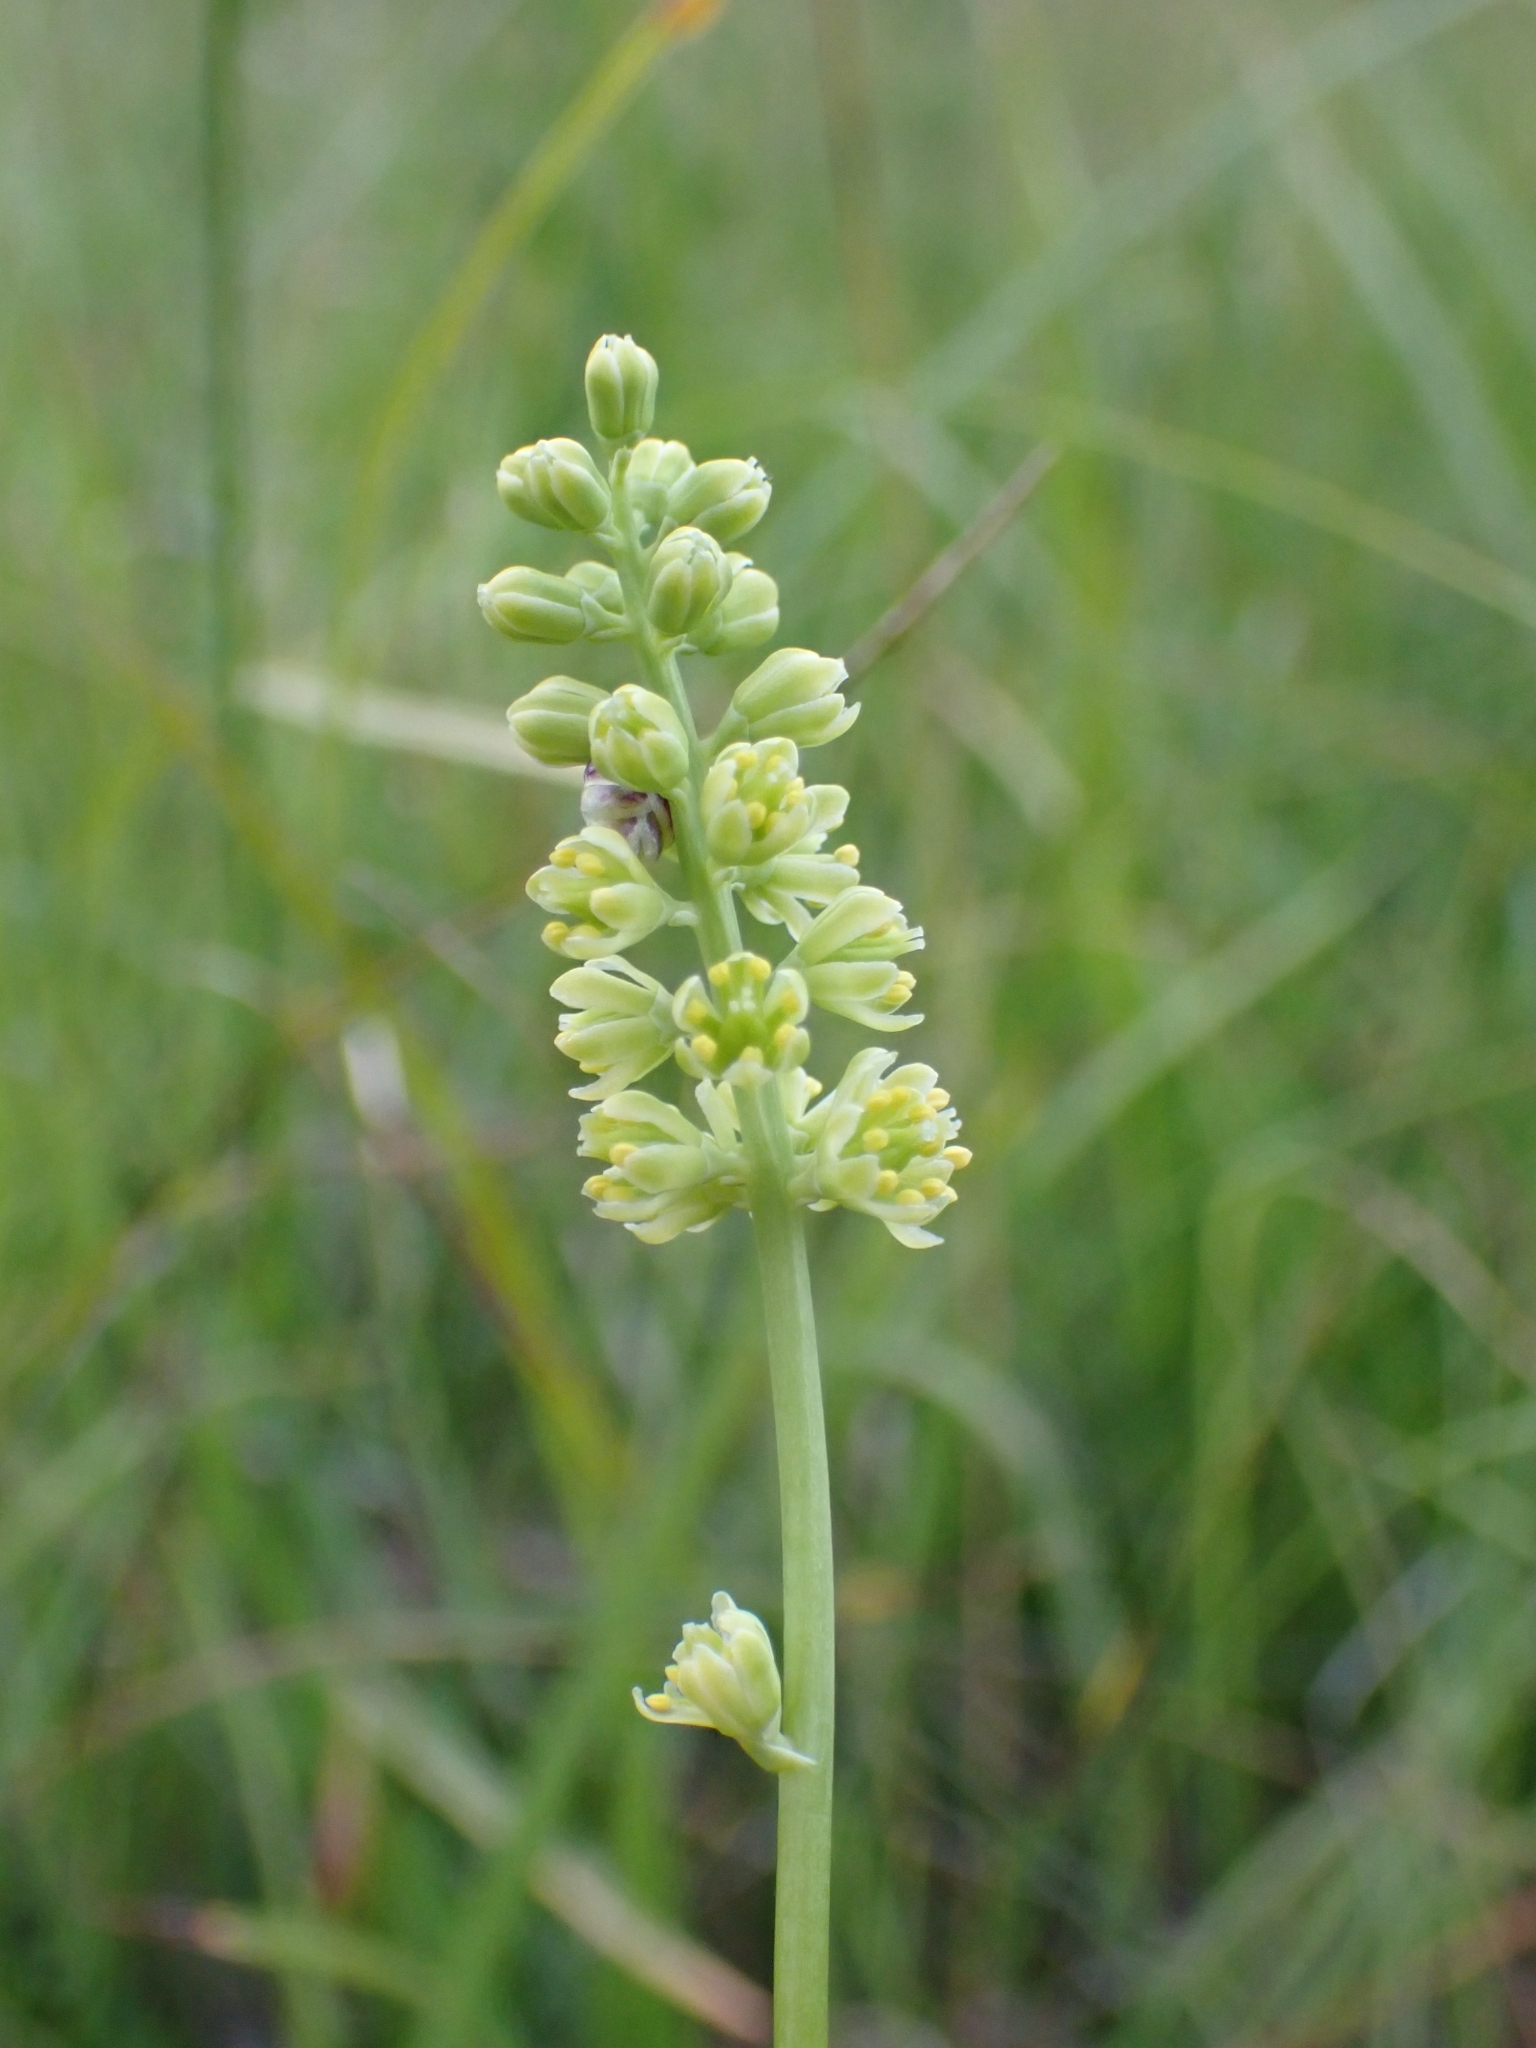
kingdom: Plantae
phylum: Tracheophyta
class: Liliopsida
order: Alismatales
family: Tofieldiaceae
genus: Tofieldia
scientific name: Tofieldia calyculata
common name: German-asphodel
